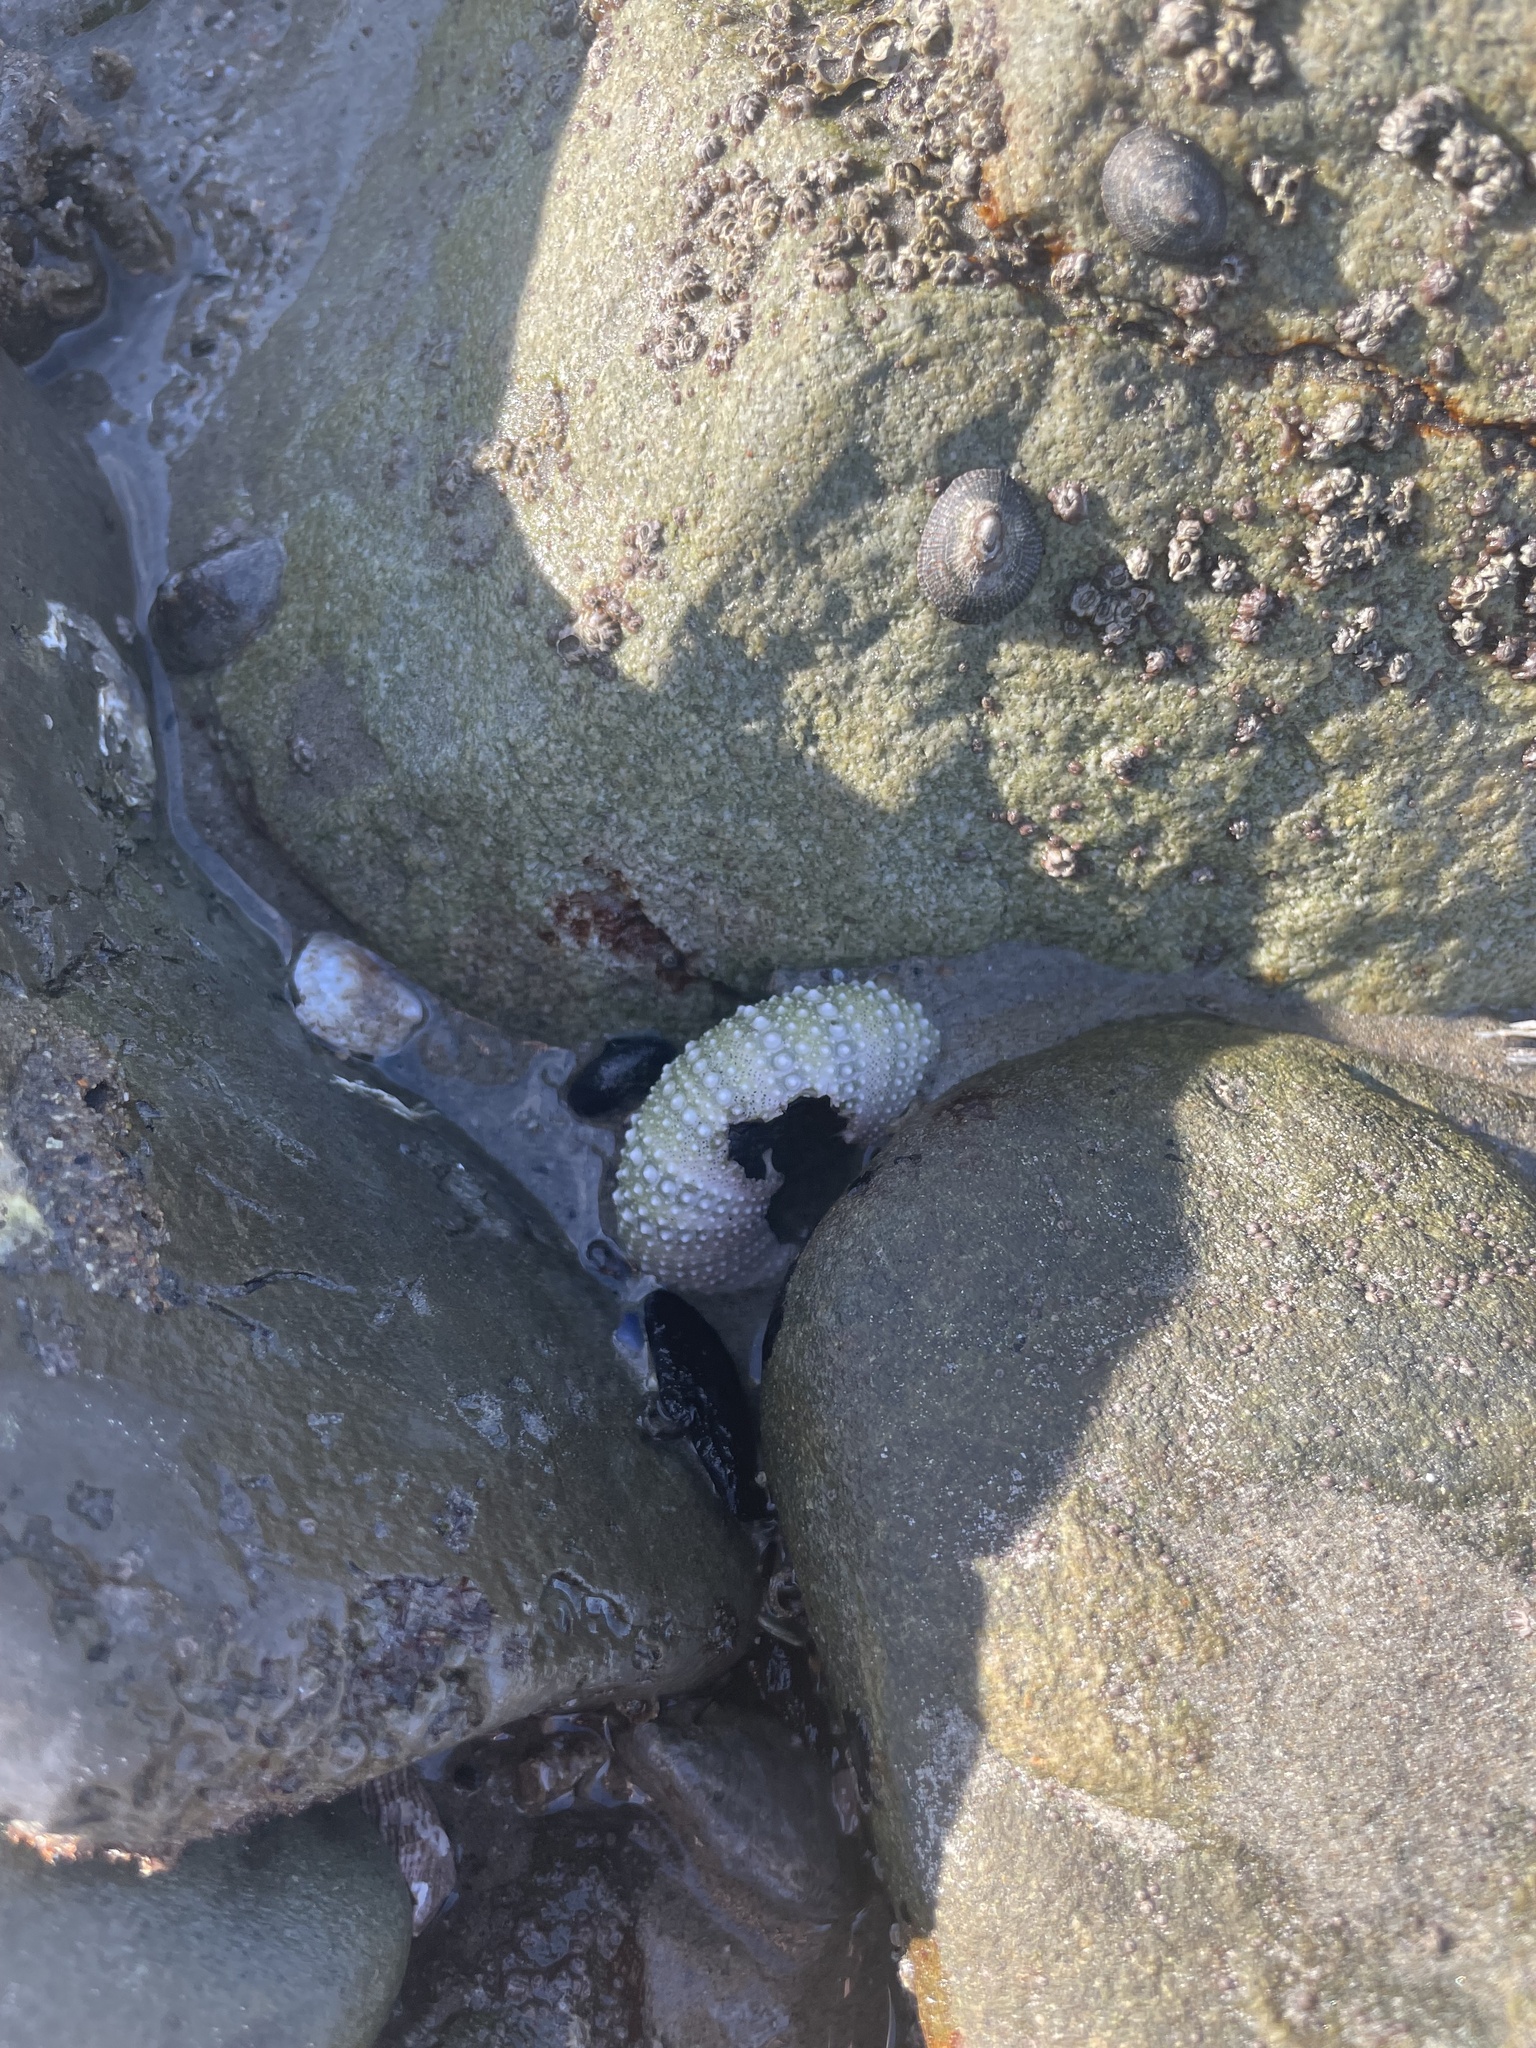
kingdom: Animalia
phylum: Echinodermata
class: Echinoidea
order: Camarodonta
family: Strongylocentrotidae
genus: Strongylocentrotus
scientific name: Strongylocentrotus purpuratus
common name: Purple sea urchin
